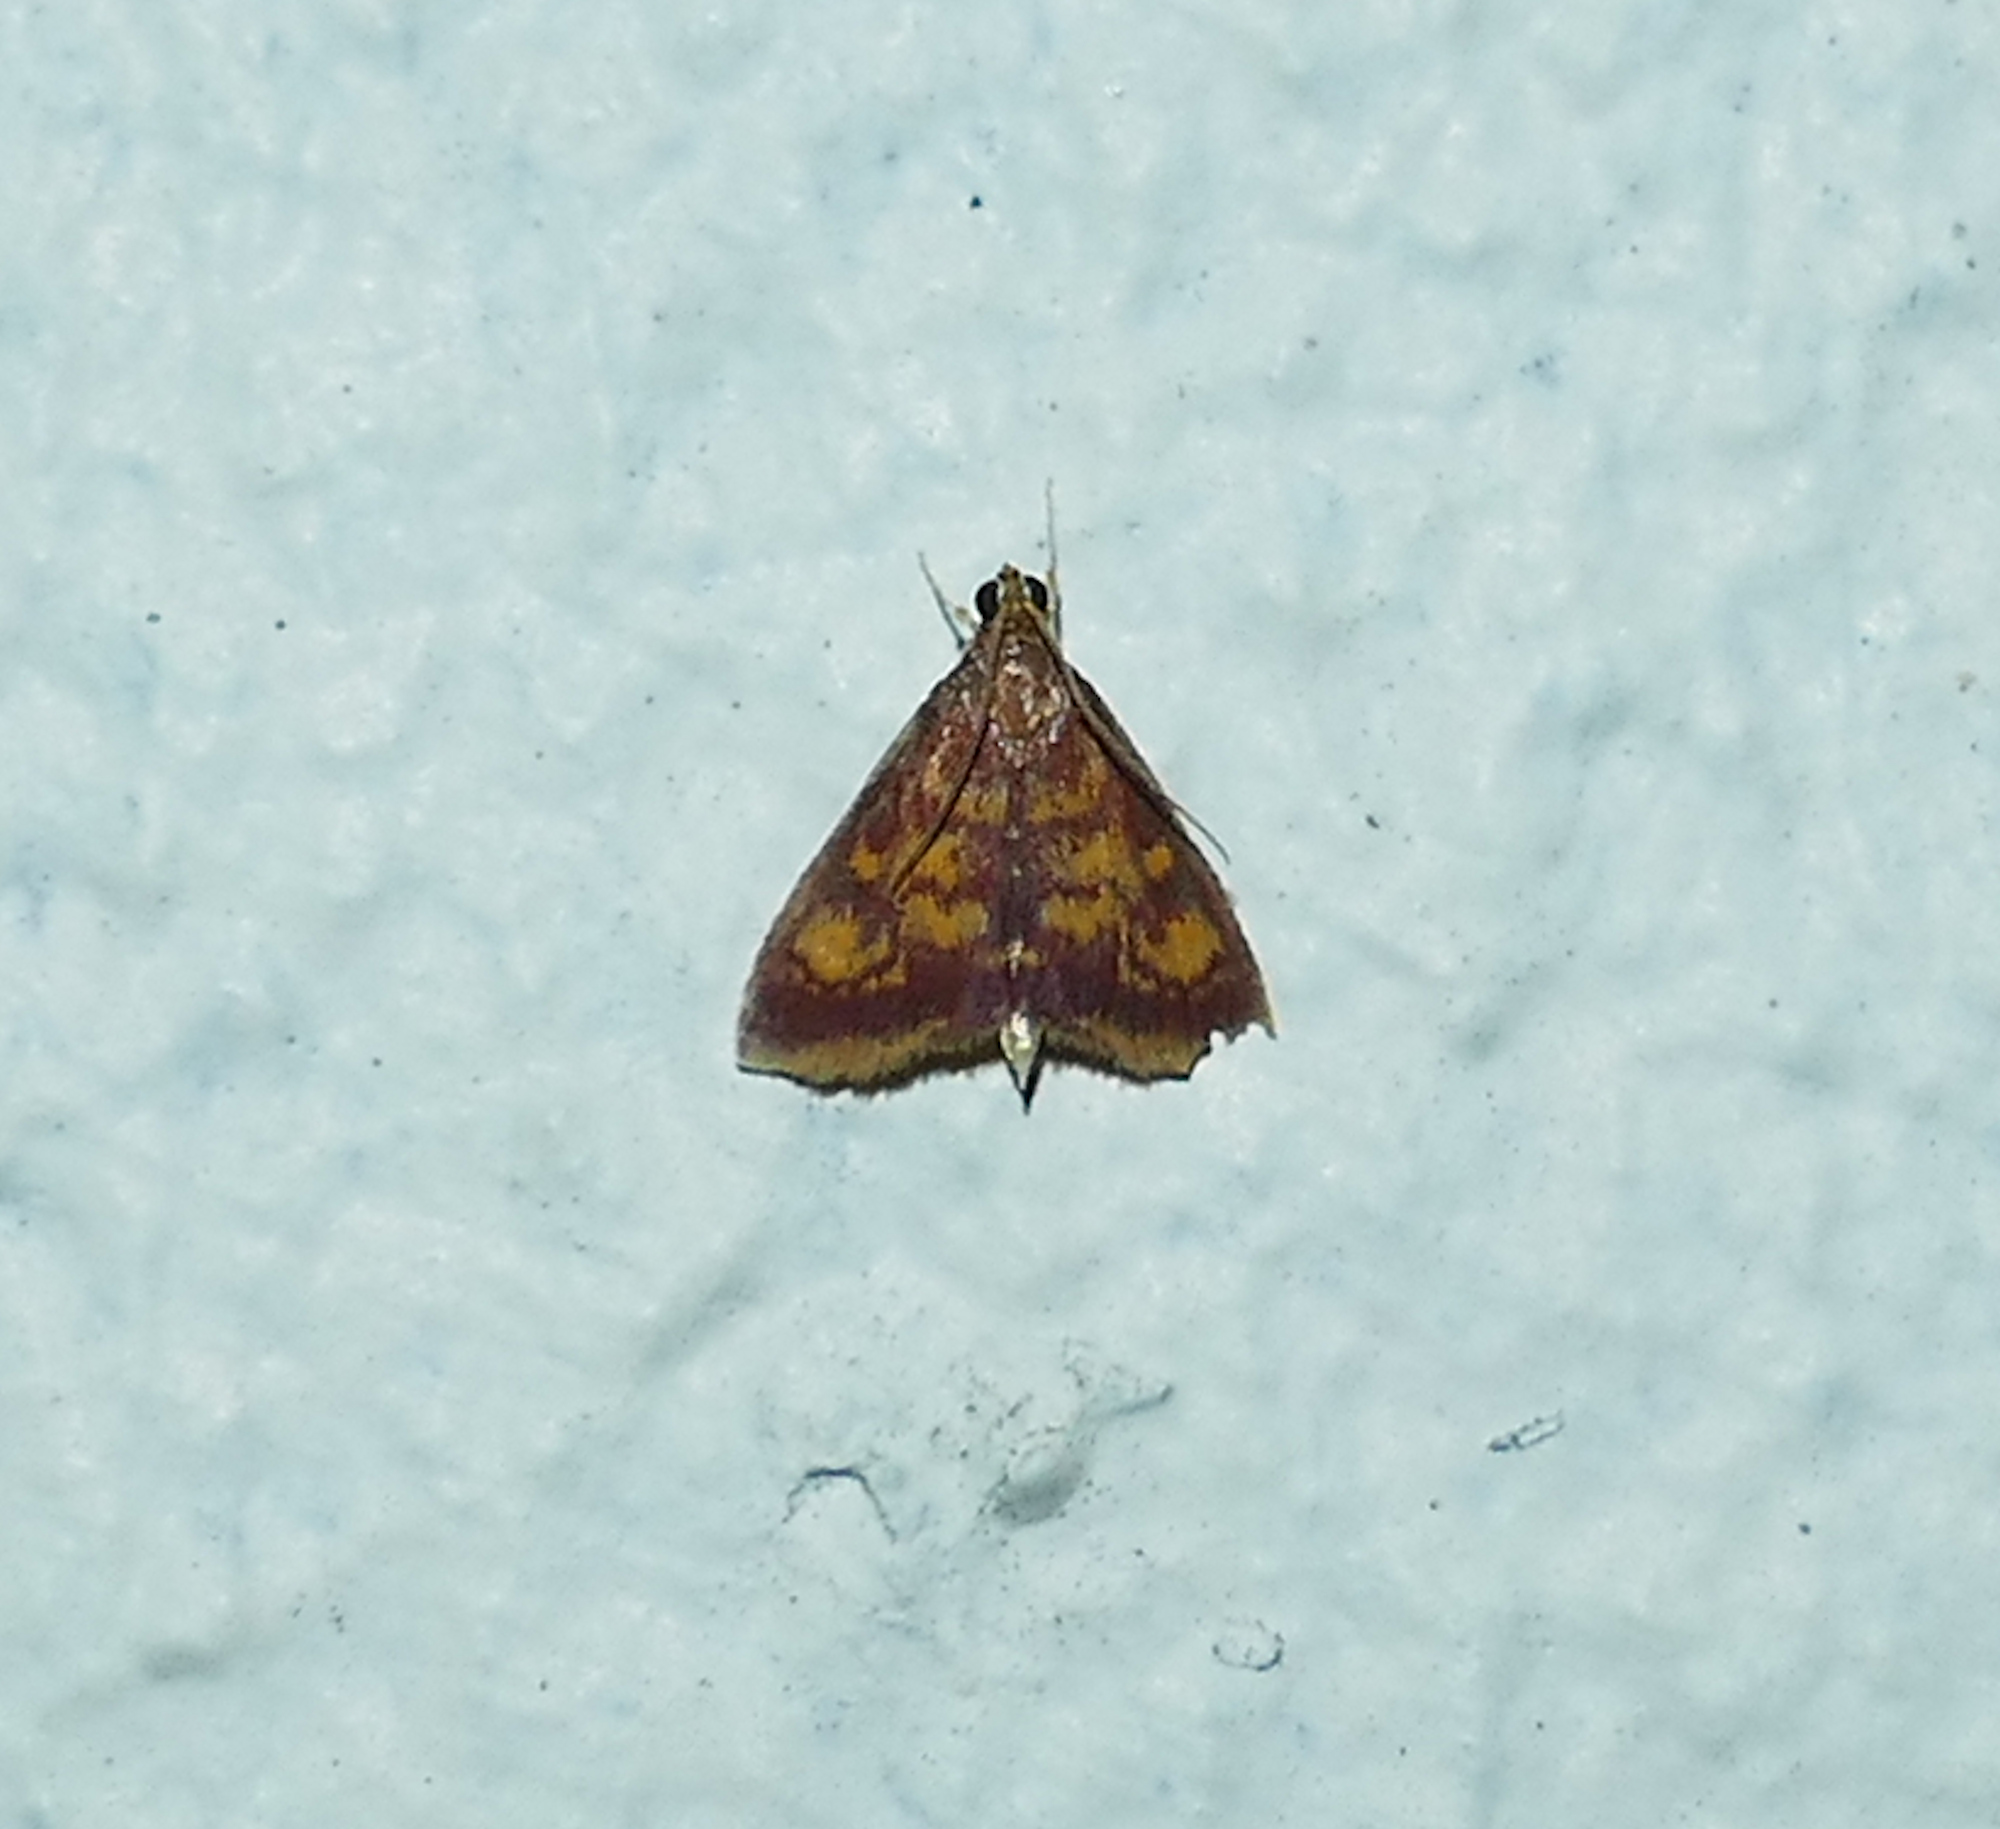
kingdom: Animalia
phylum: Arthropoda
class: Insecta
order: Lepidoptera
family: Crambidae
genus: Pyrausta
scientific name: Pyrausta acrionalis
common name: Mint-loving pyrausta moth
